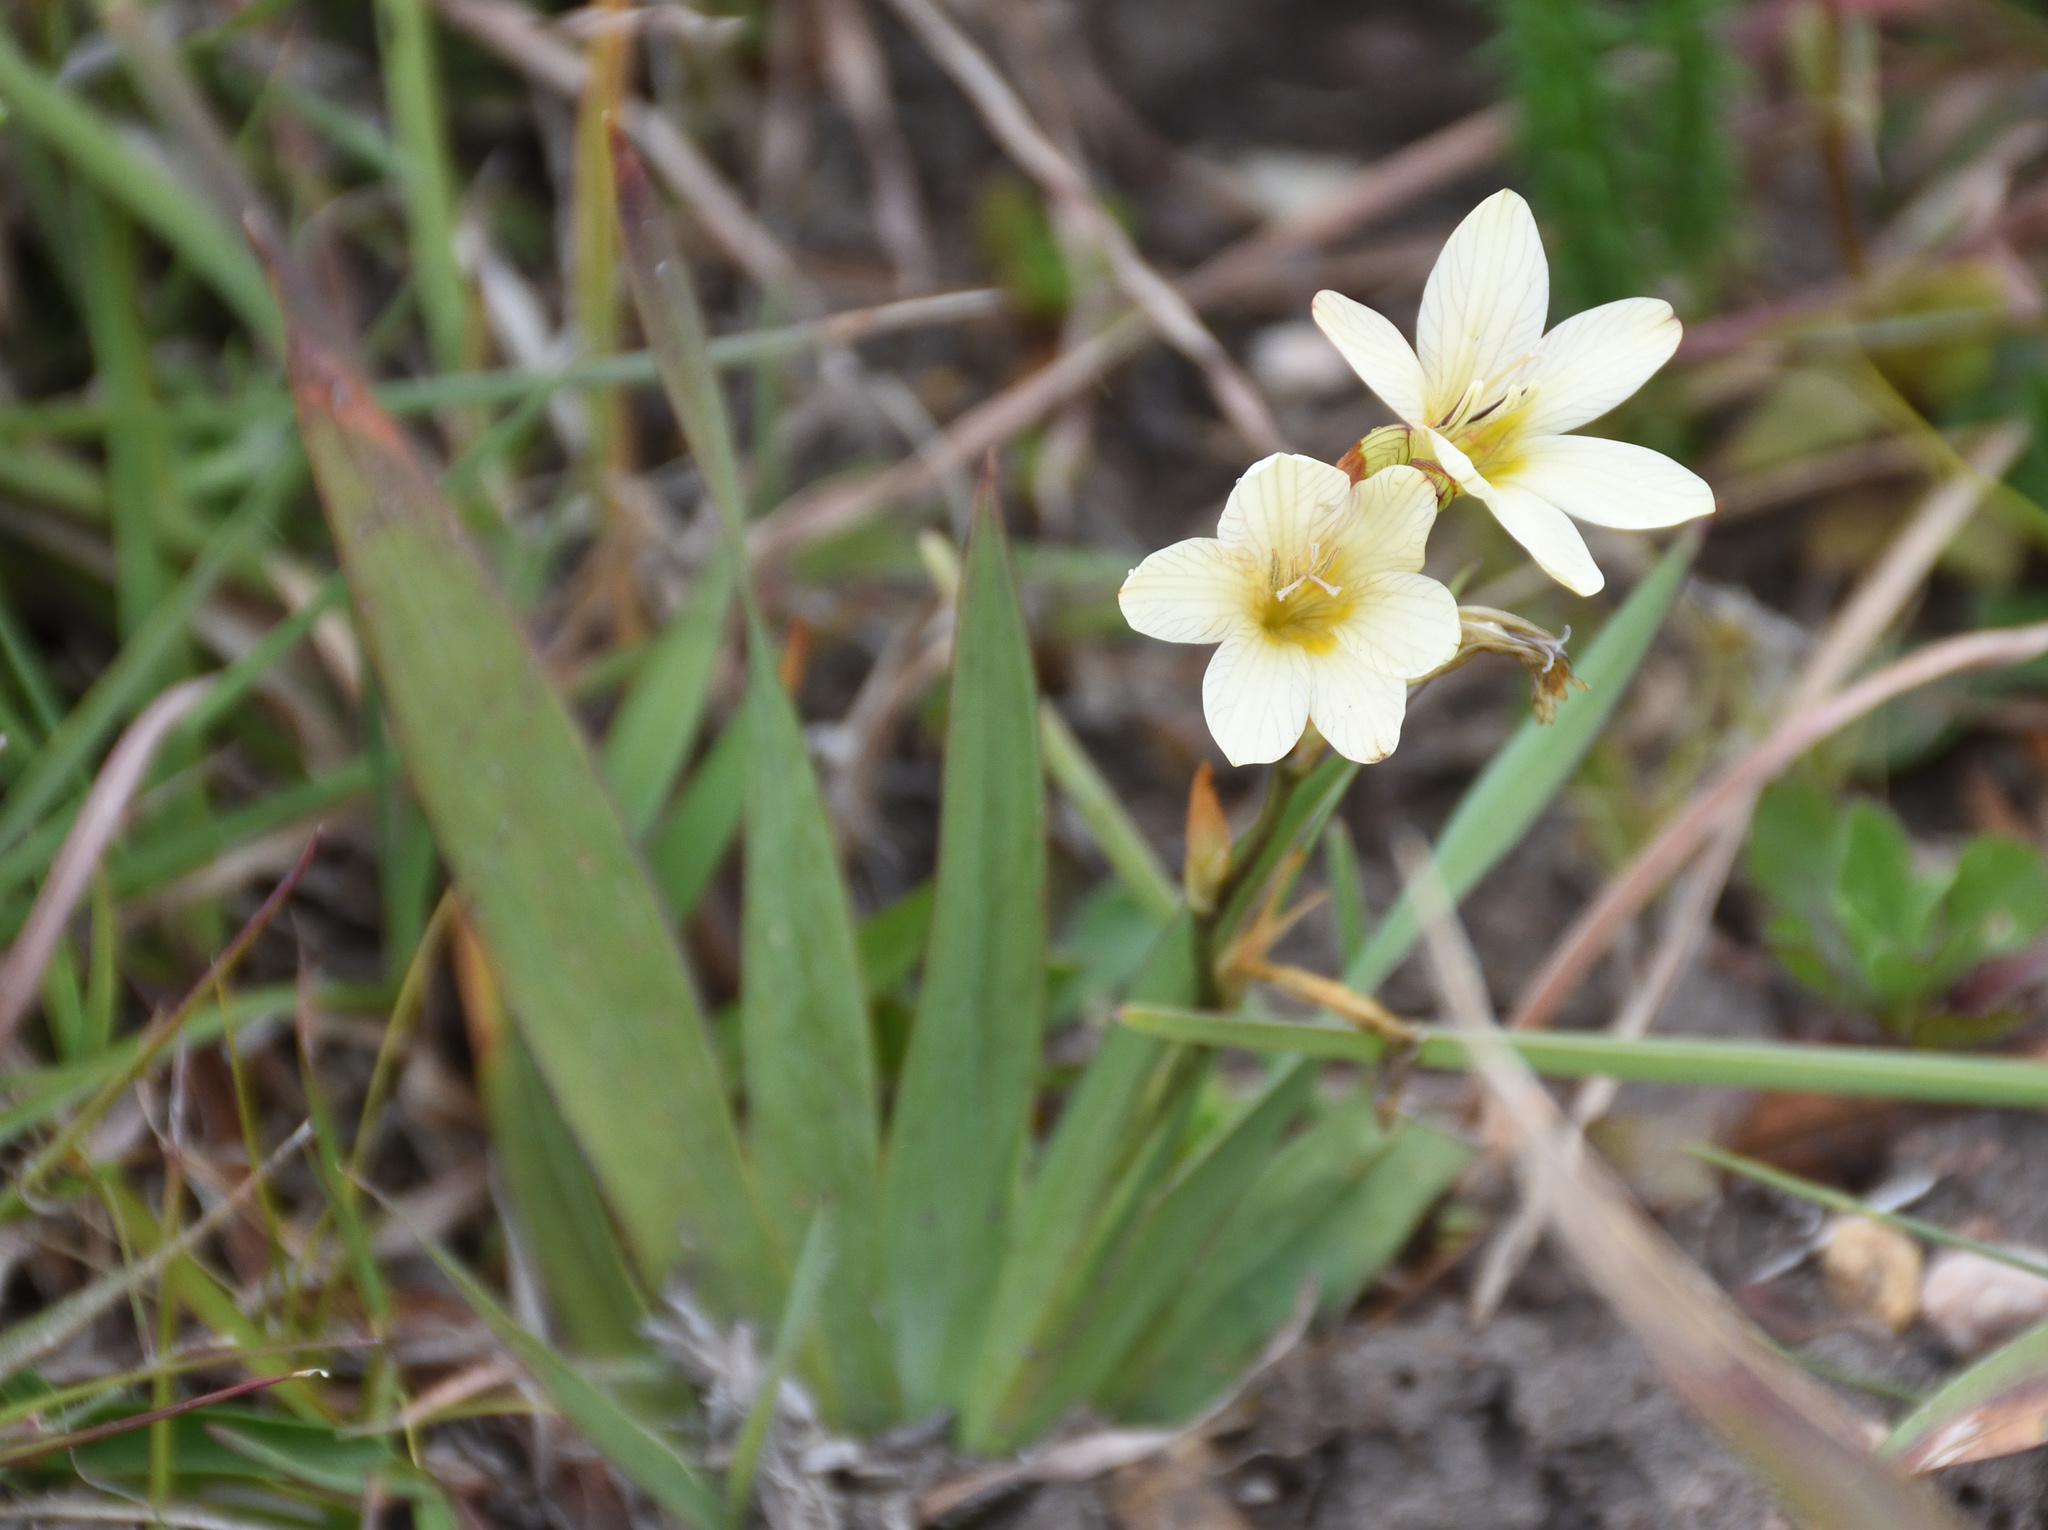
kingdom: Plantae
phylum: Tracheophyta
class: Liliopsida
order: Asparagales
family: Iridaceae
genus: Tritonia
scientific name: Tritonia gladiolaris
